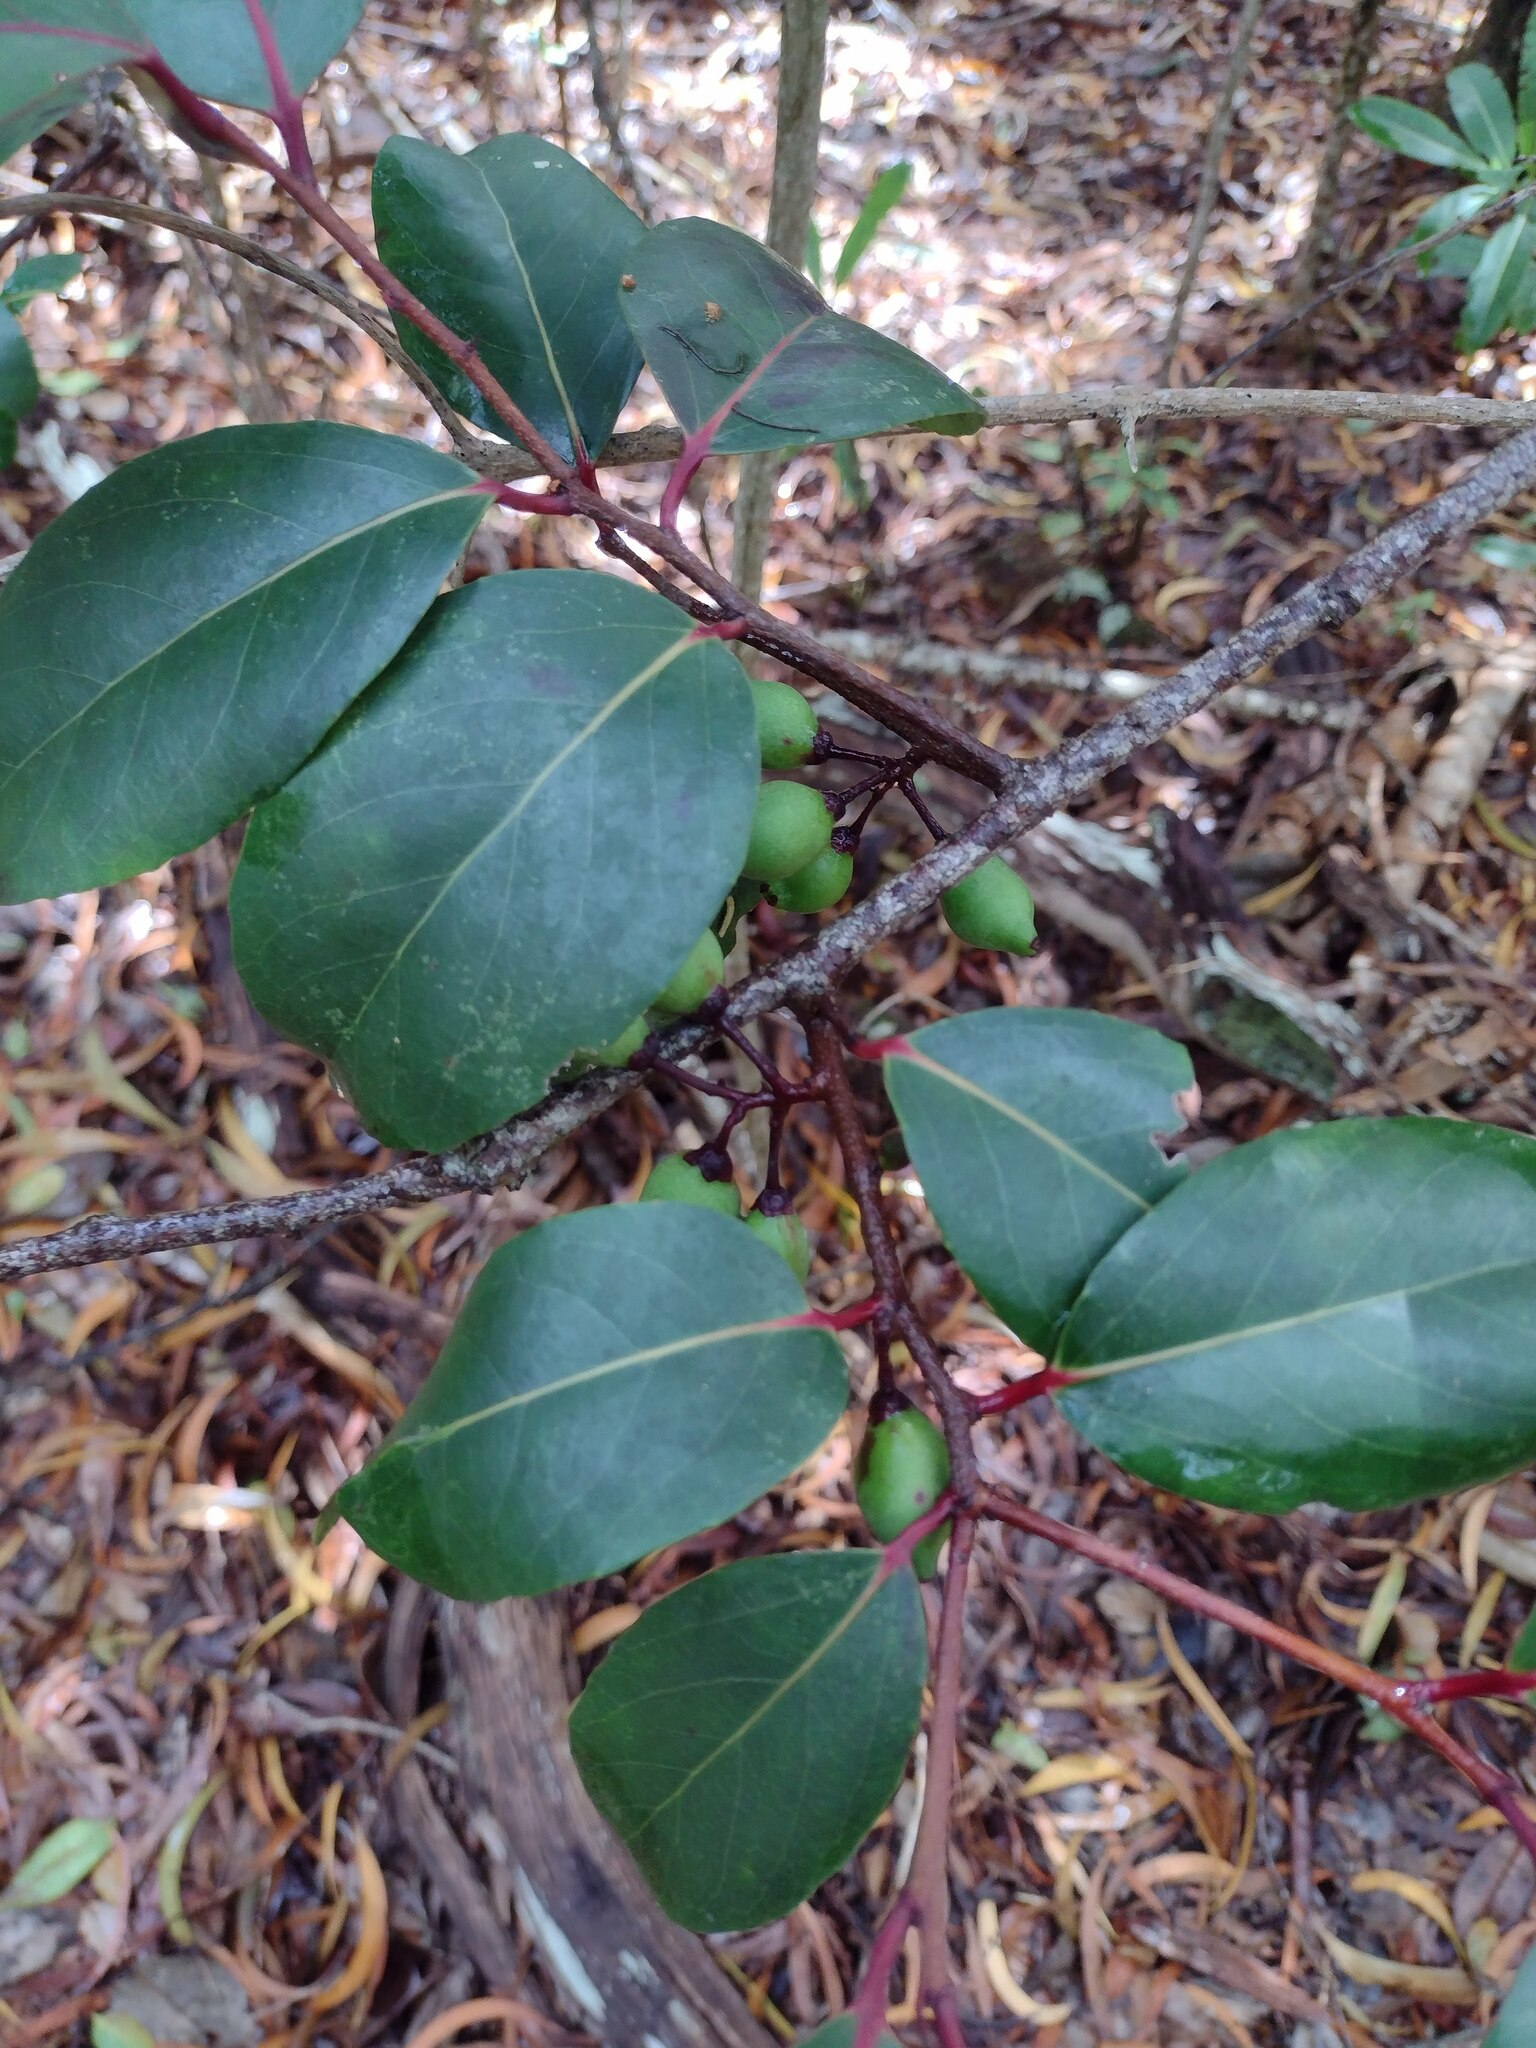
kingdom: Plantae
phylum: Tracheophyta
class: Magnoliopsida
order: Malpighiales
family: Salicaceae
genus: Xylosma
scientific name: Xylosma hawaiense
